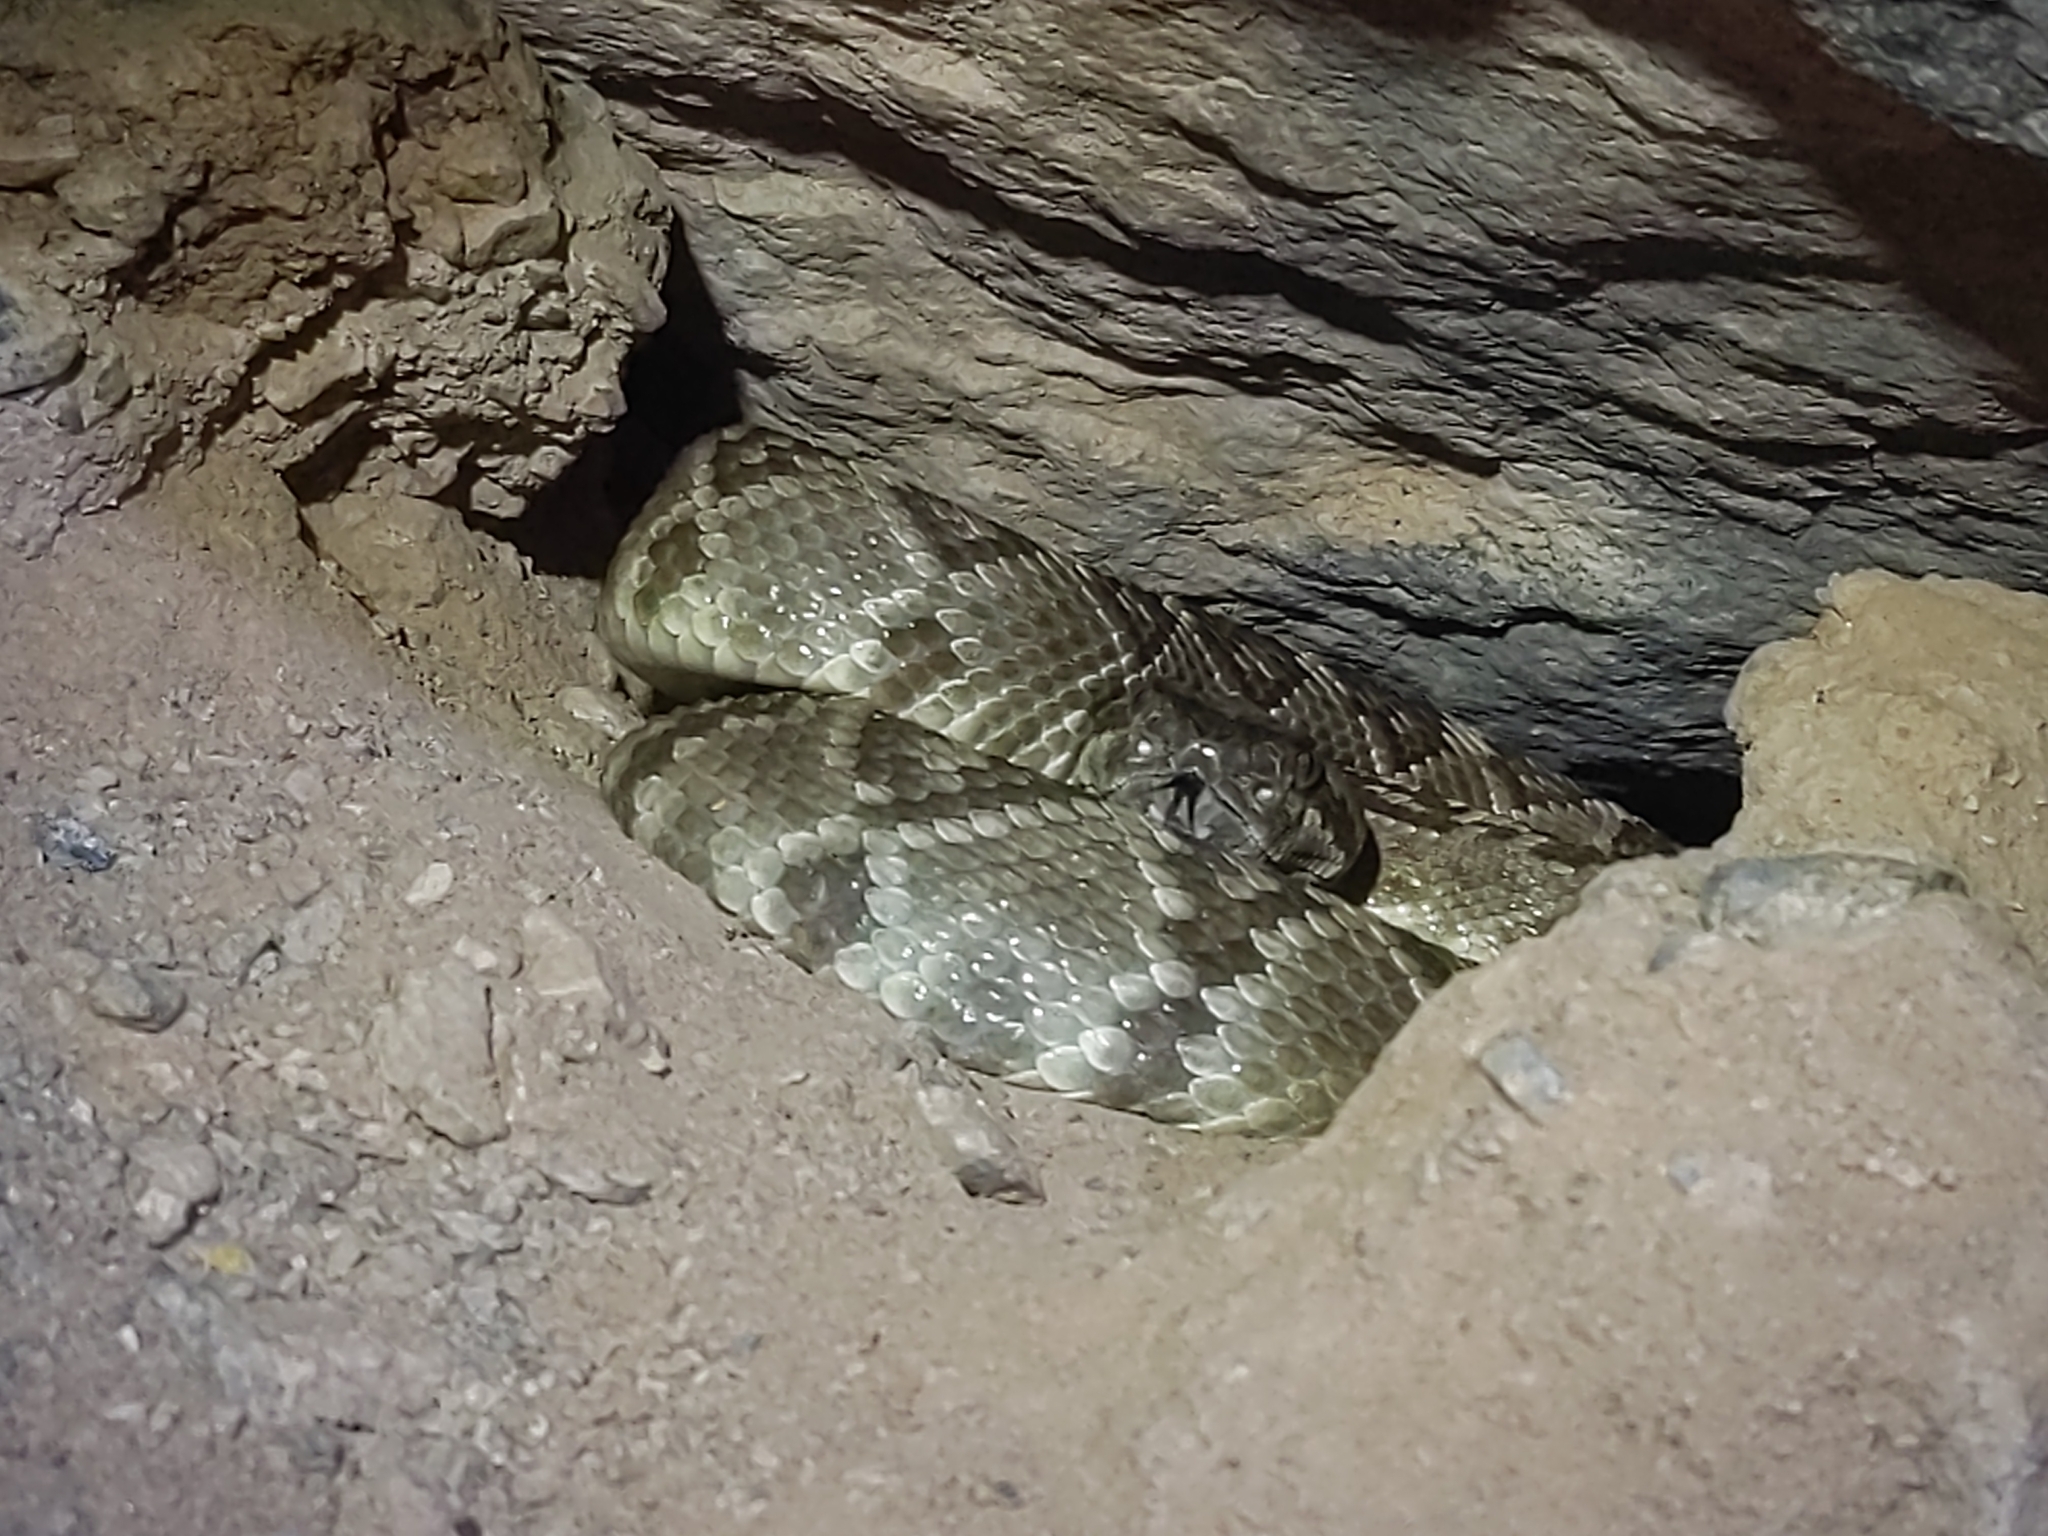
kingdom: Animalia
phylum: Chordata
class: Squamata
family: Viperidae
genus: Crotalus
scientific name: Crotalus molossus
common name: Black tailed rattlesnake
